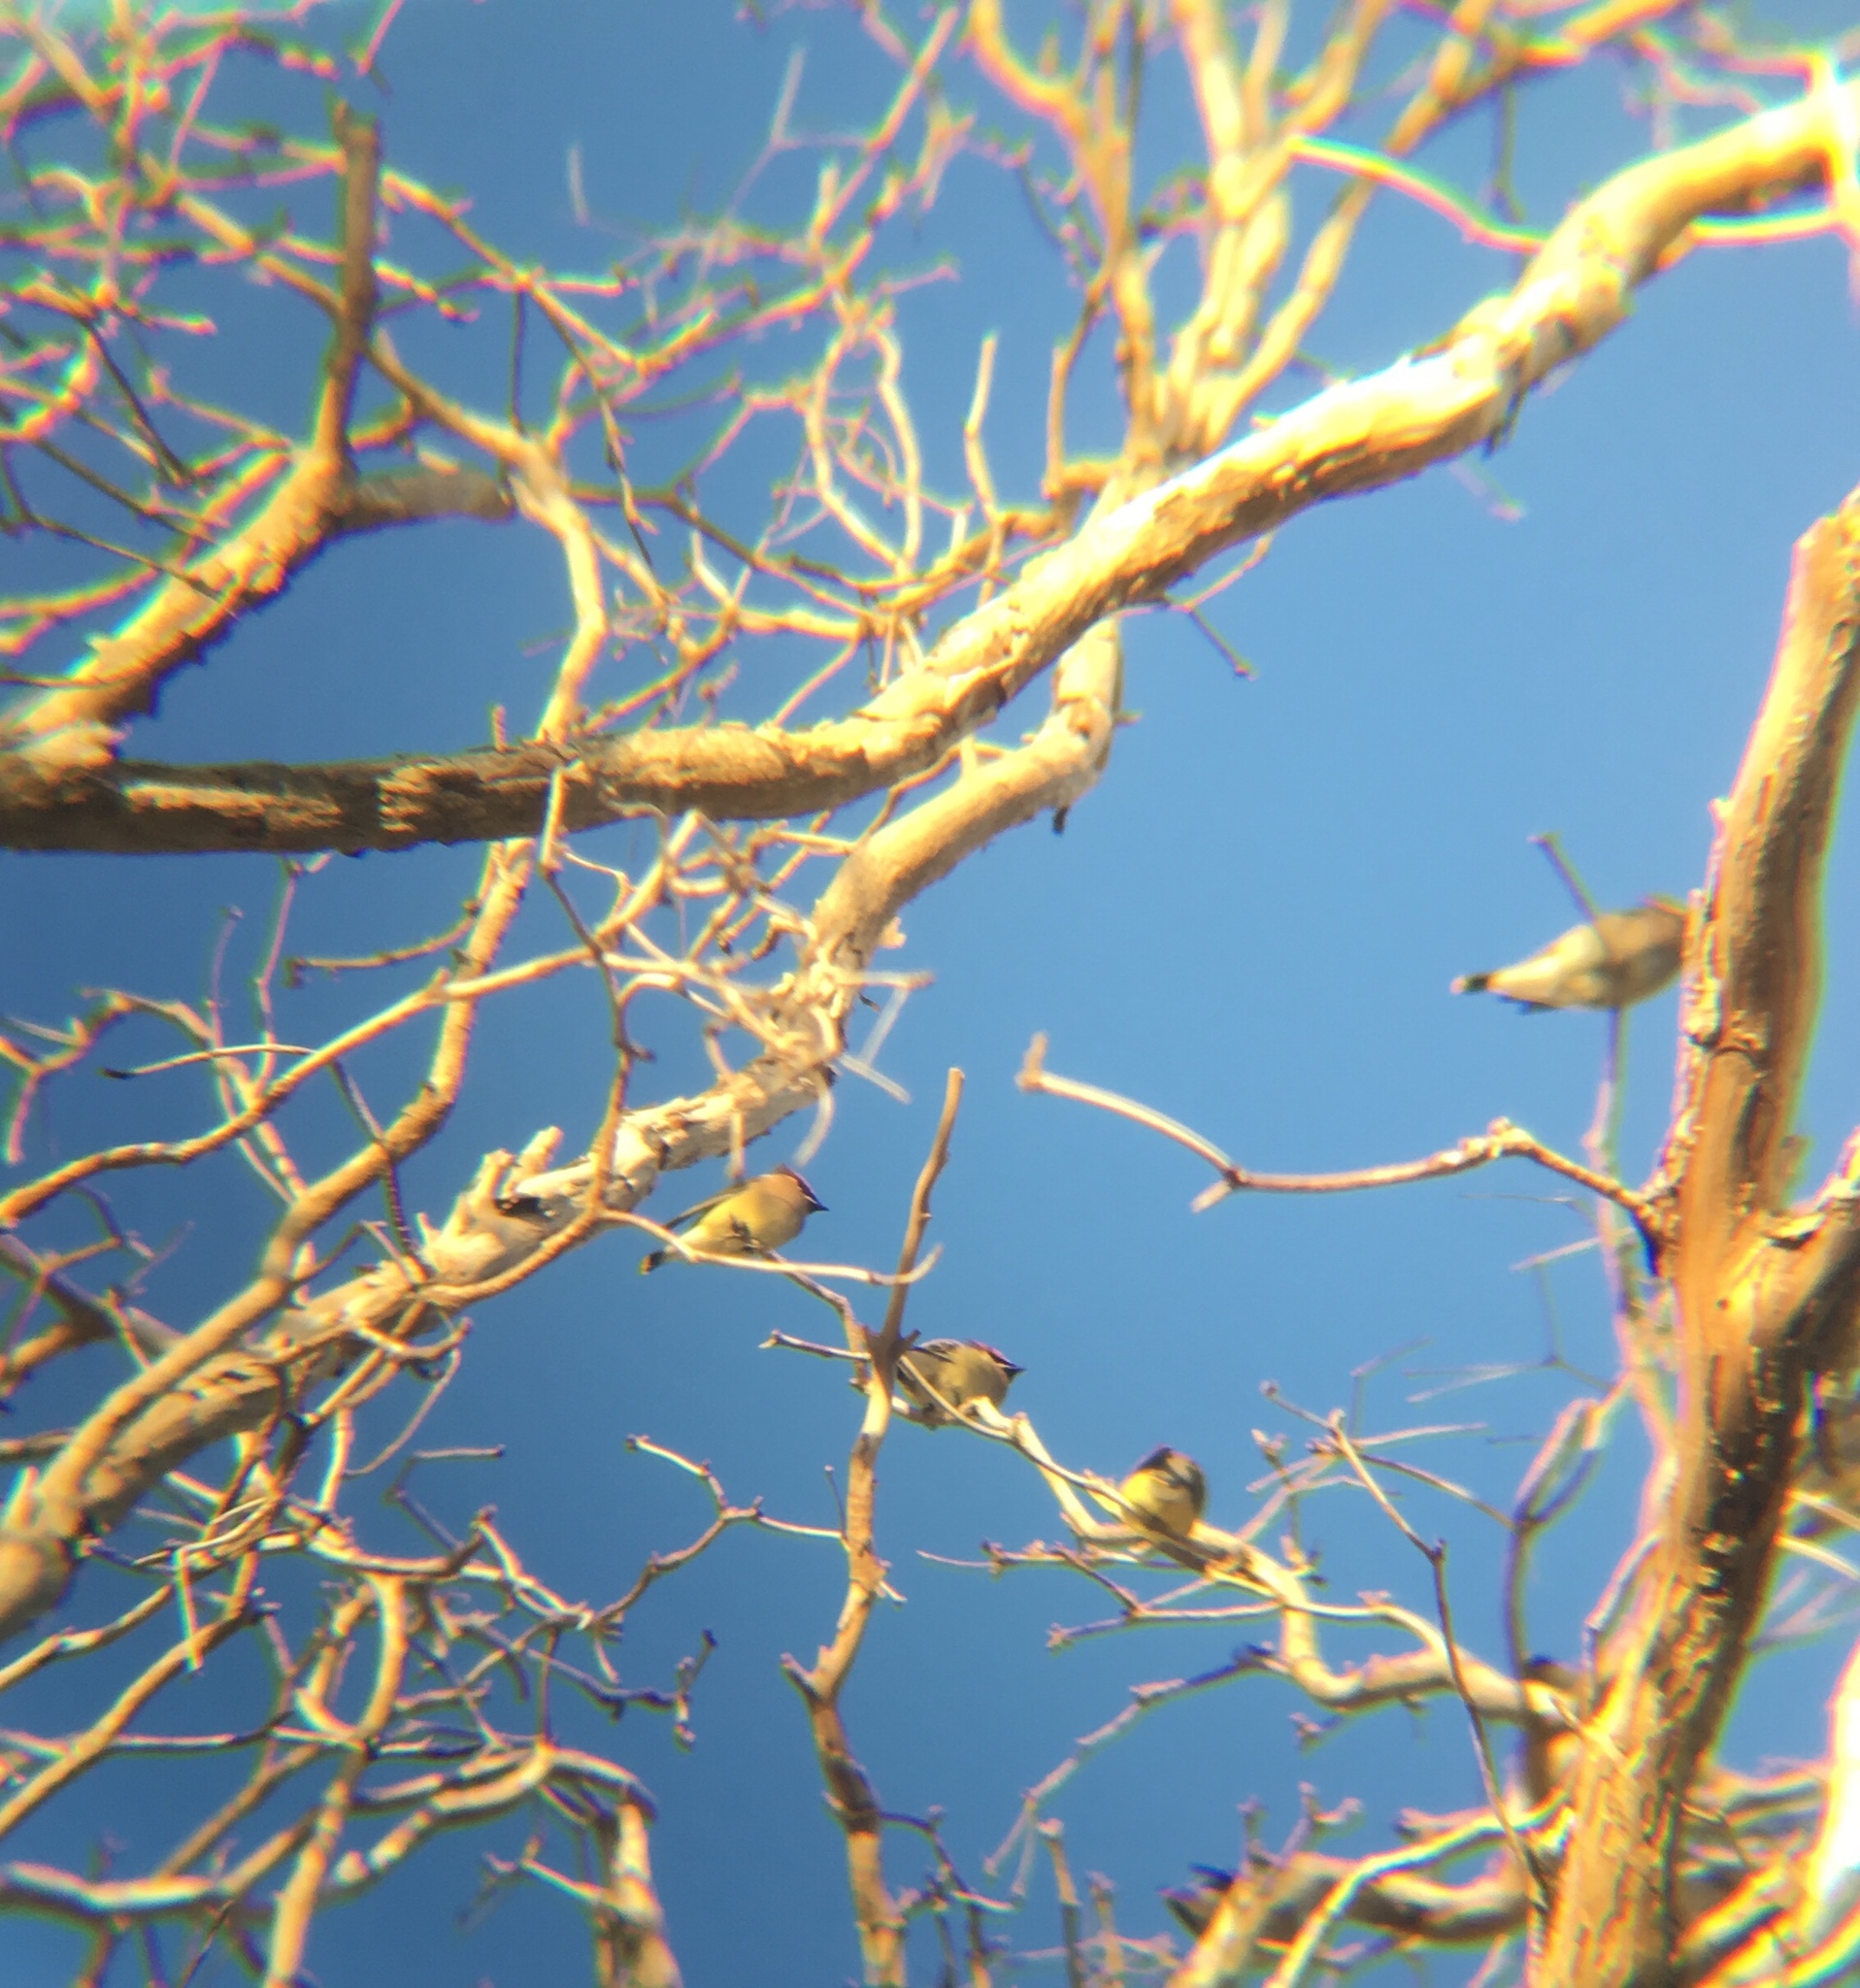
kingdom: Animalia
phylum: Chordata
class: Aves
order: Passeriformes
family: Bombycillidae
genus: Bombycilla
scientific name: Bombycilla cedrorum
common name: Cedar waxwing
